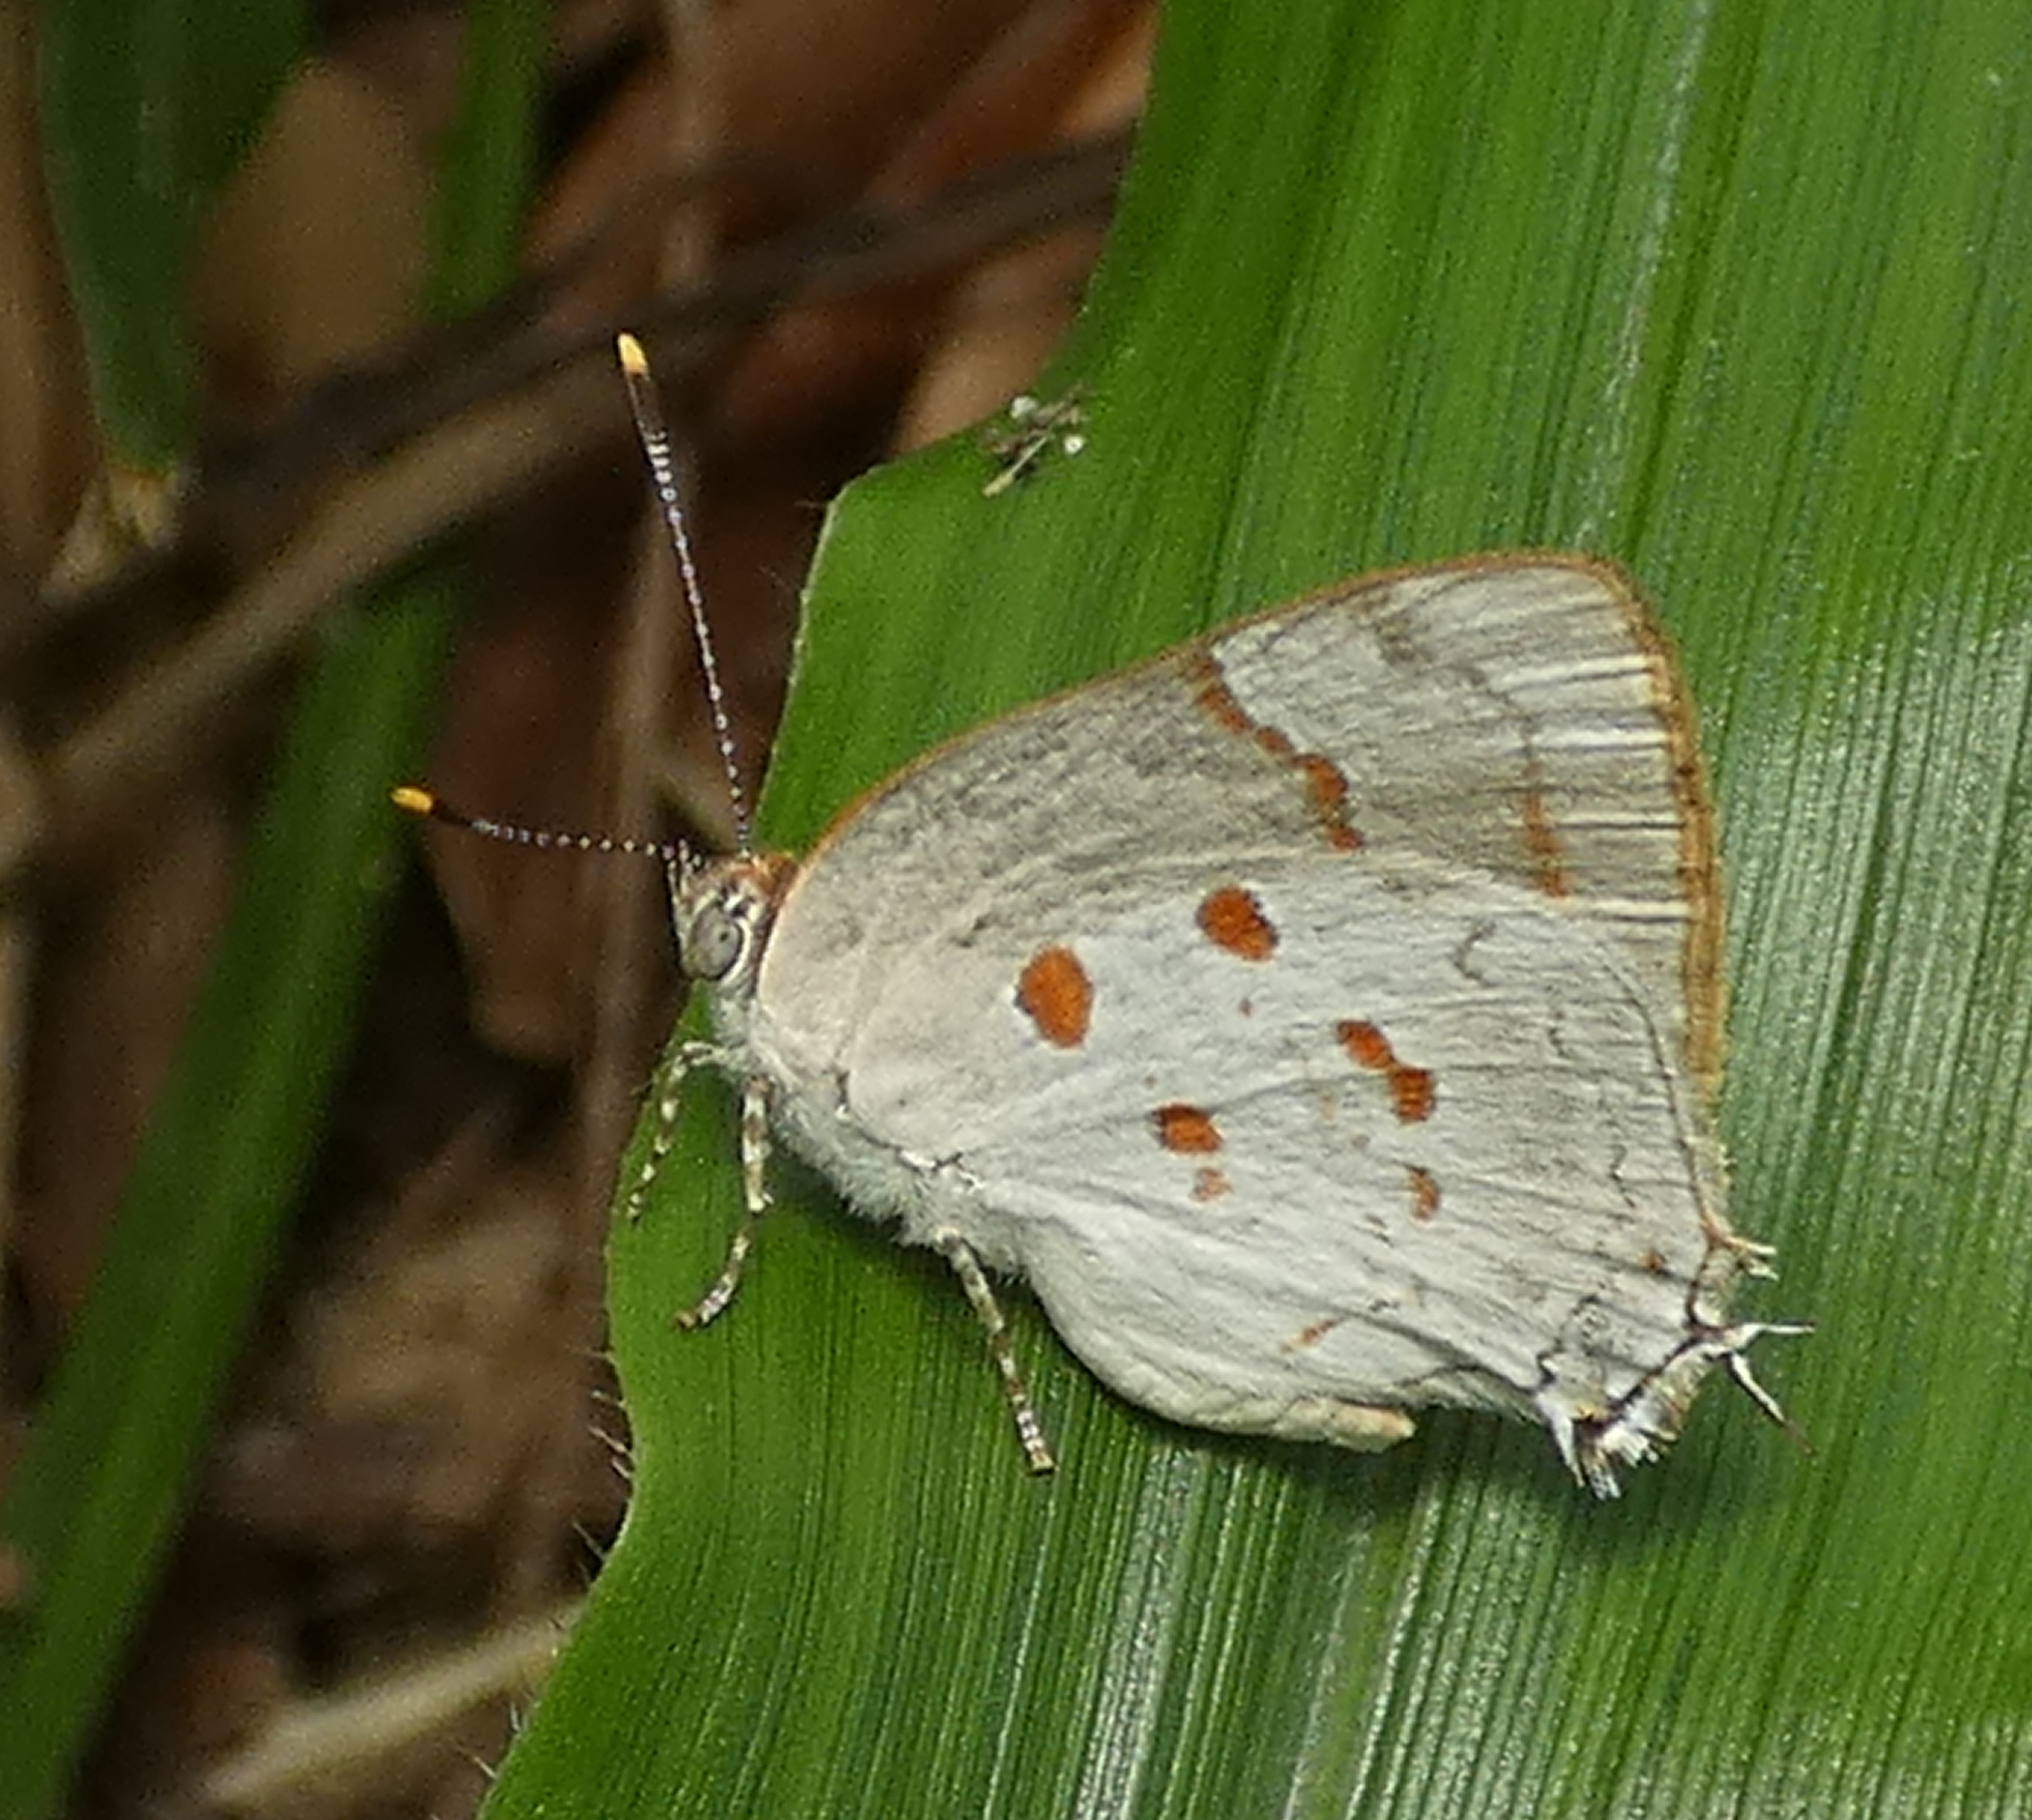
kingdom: Animalia
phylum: Arthropoda
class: Insecta
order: Lepidoptera
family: Lycaenidae
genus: Tmolus
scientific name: Tmolus echion
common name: Red-spotted hairstreak
